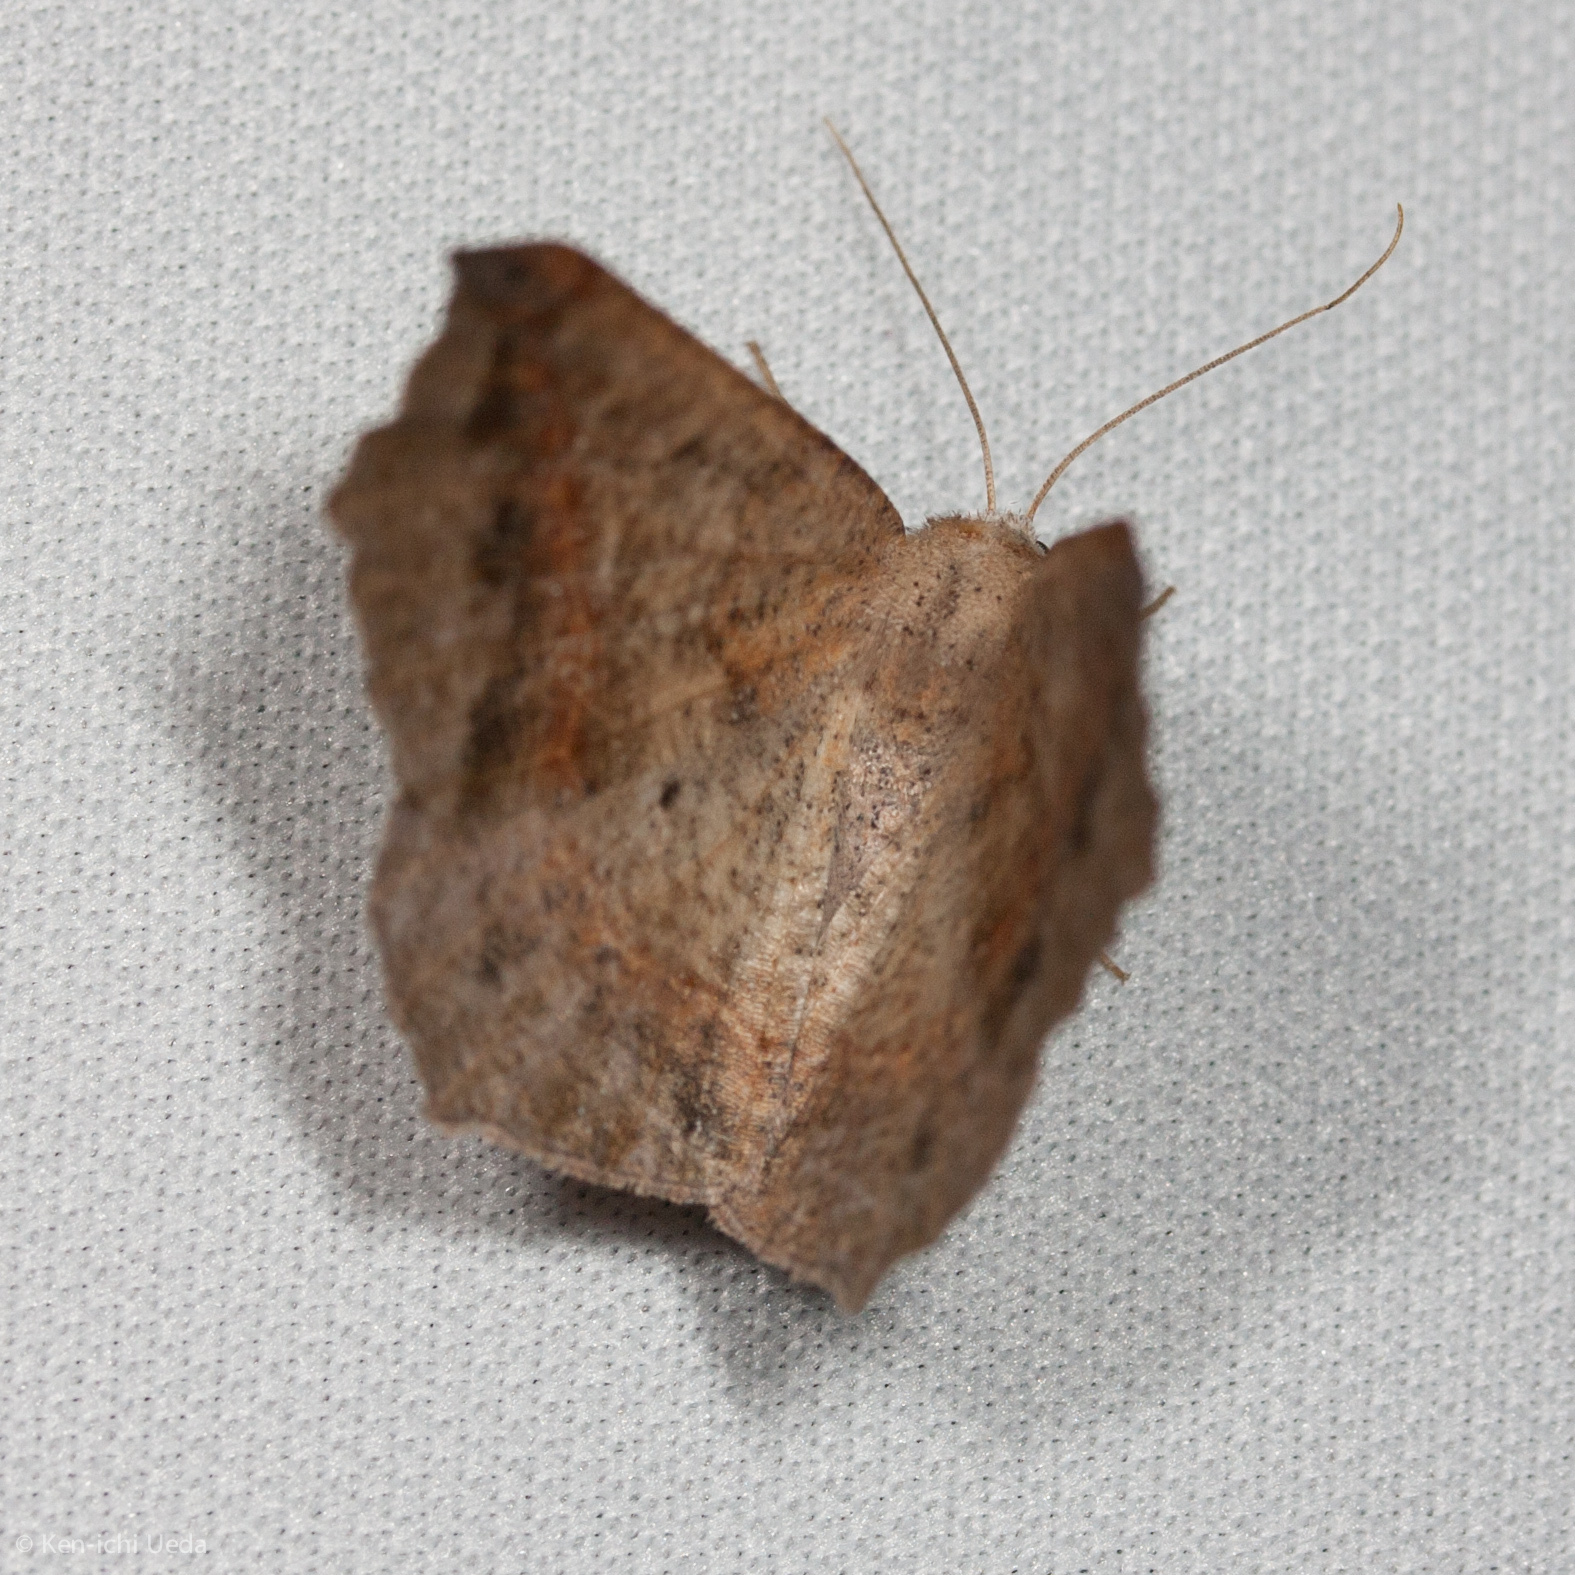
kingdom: Animalia
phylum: Arthropoda
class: Insecta
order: Lepidoptera
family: Geometridae
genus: Prochoerodes
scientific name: Prochoerodes forficaria
